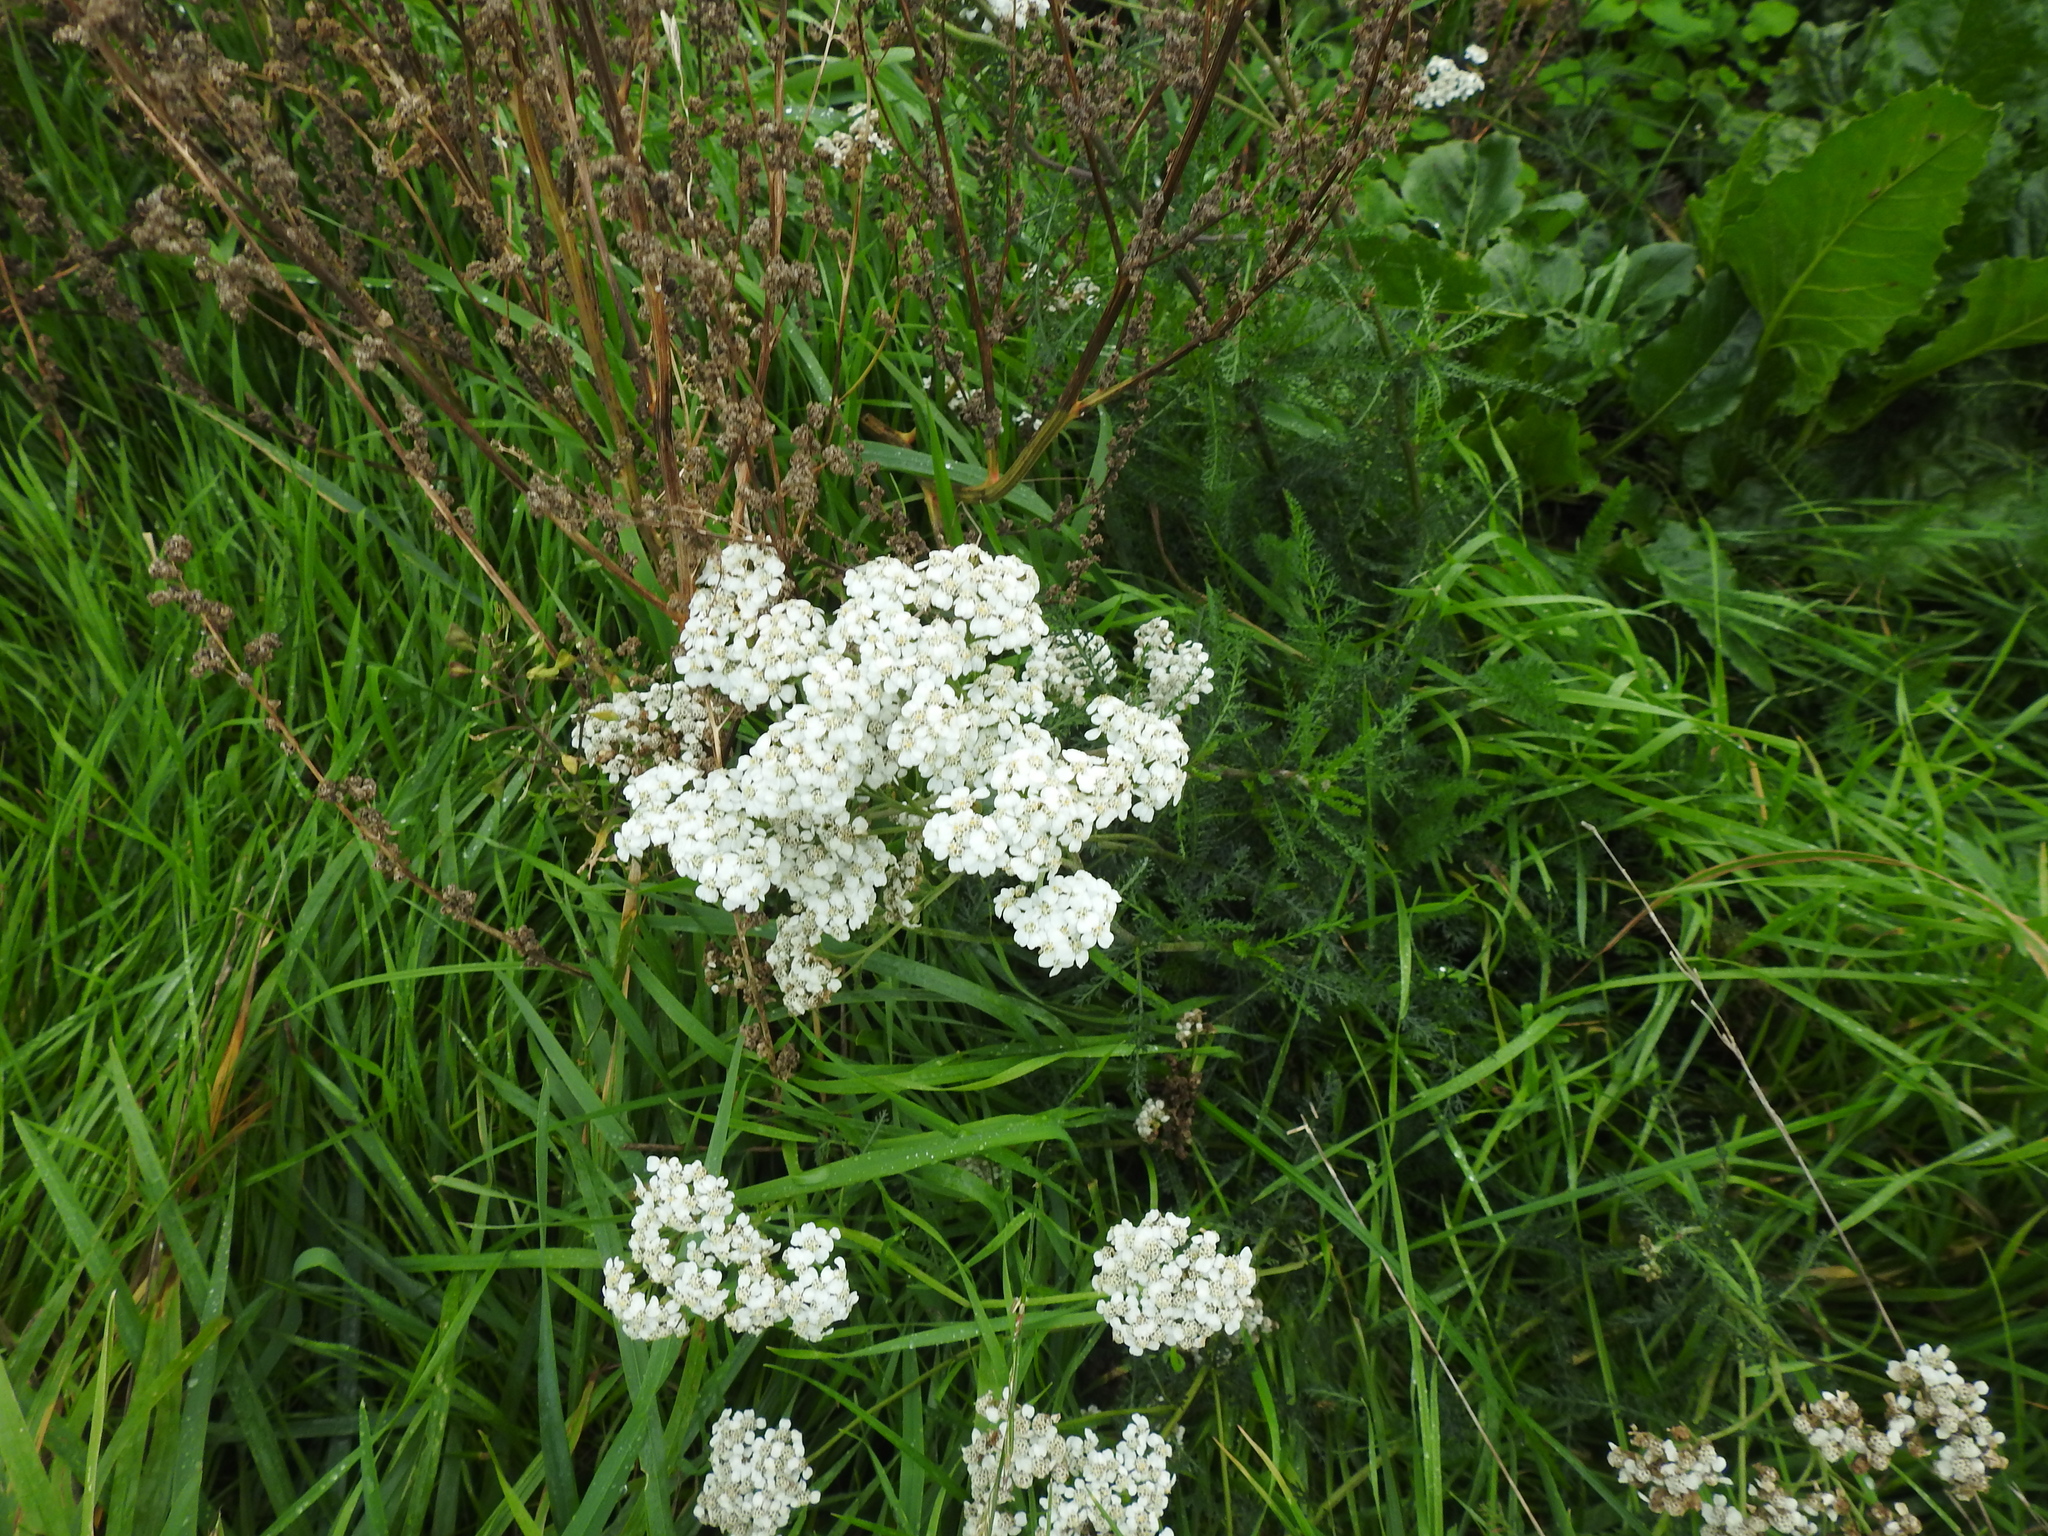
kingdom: Plantae
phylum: Tracheophyta
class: Magnoliopsida
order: Asterales
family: Asteraceae
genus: Achillea
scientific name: Achillea millefolium
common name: Yarrow
